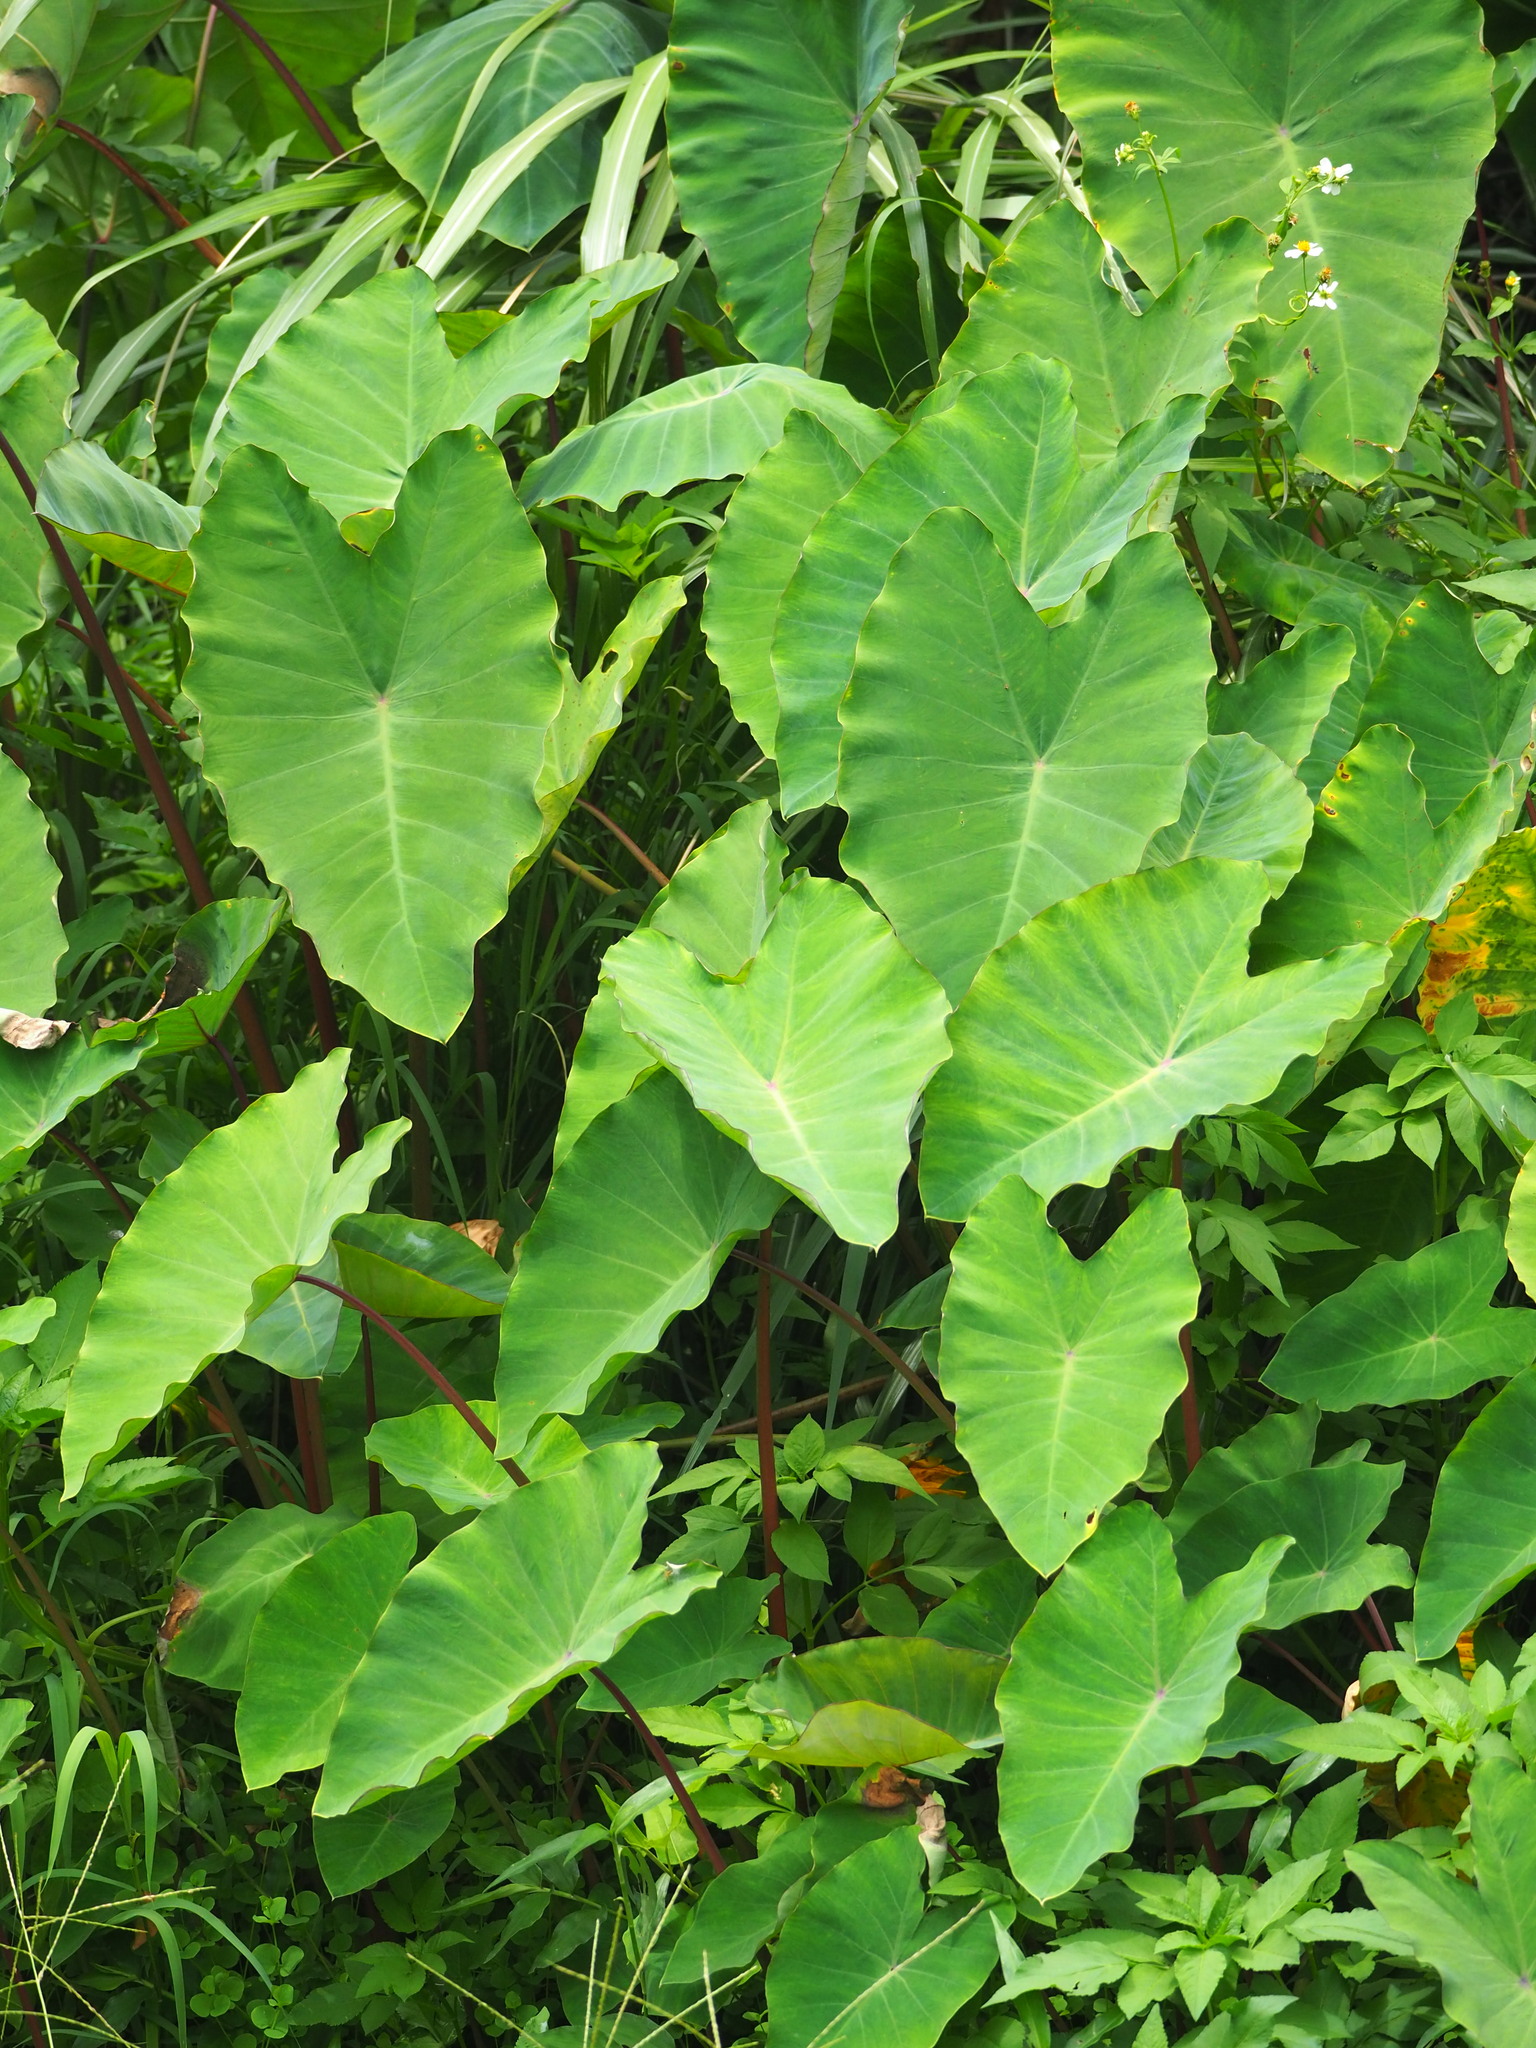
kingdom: Plantae
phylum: Tracheophyta
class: Liliopsida
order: Alismatales
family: Araceae
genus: Colocasia
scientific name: Colocasia esculenta
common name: Taro
